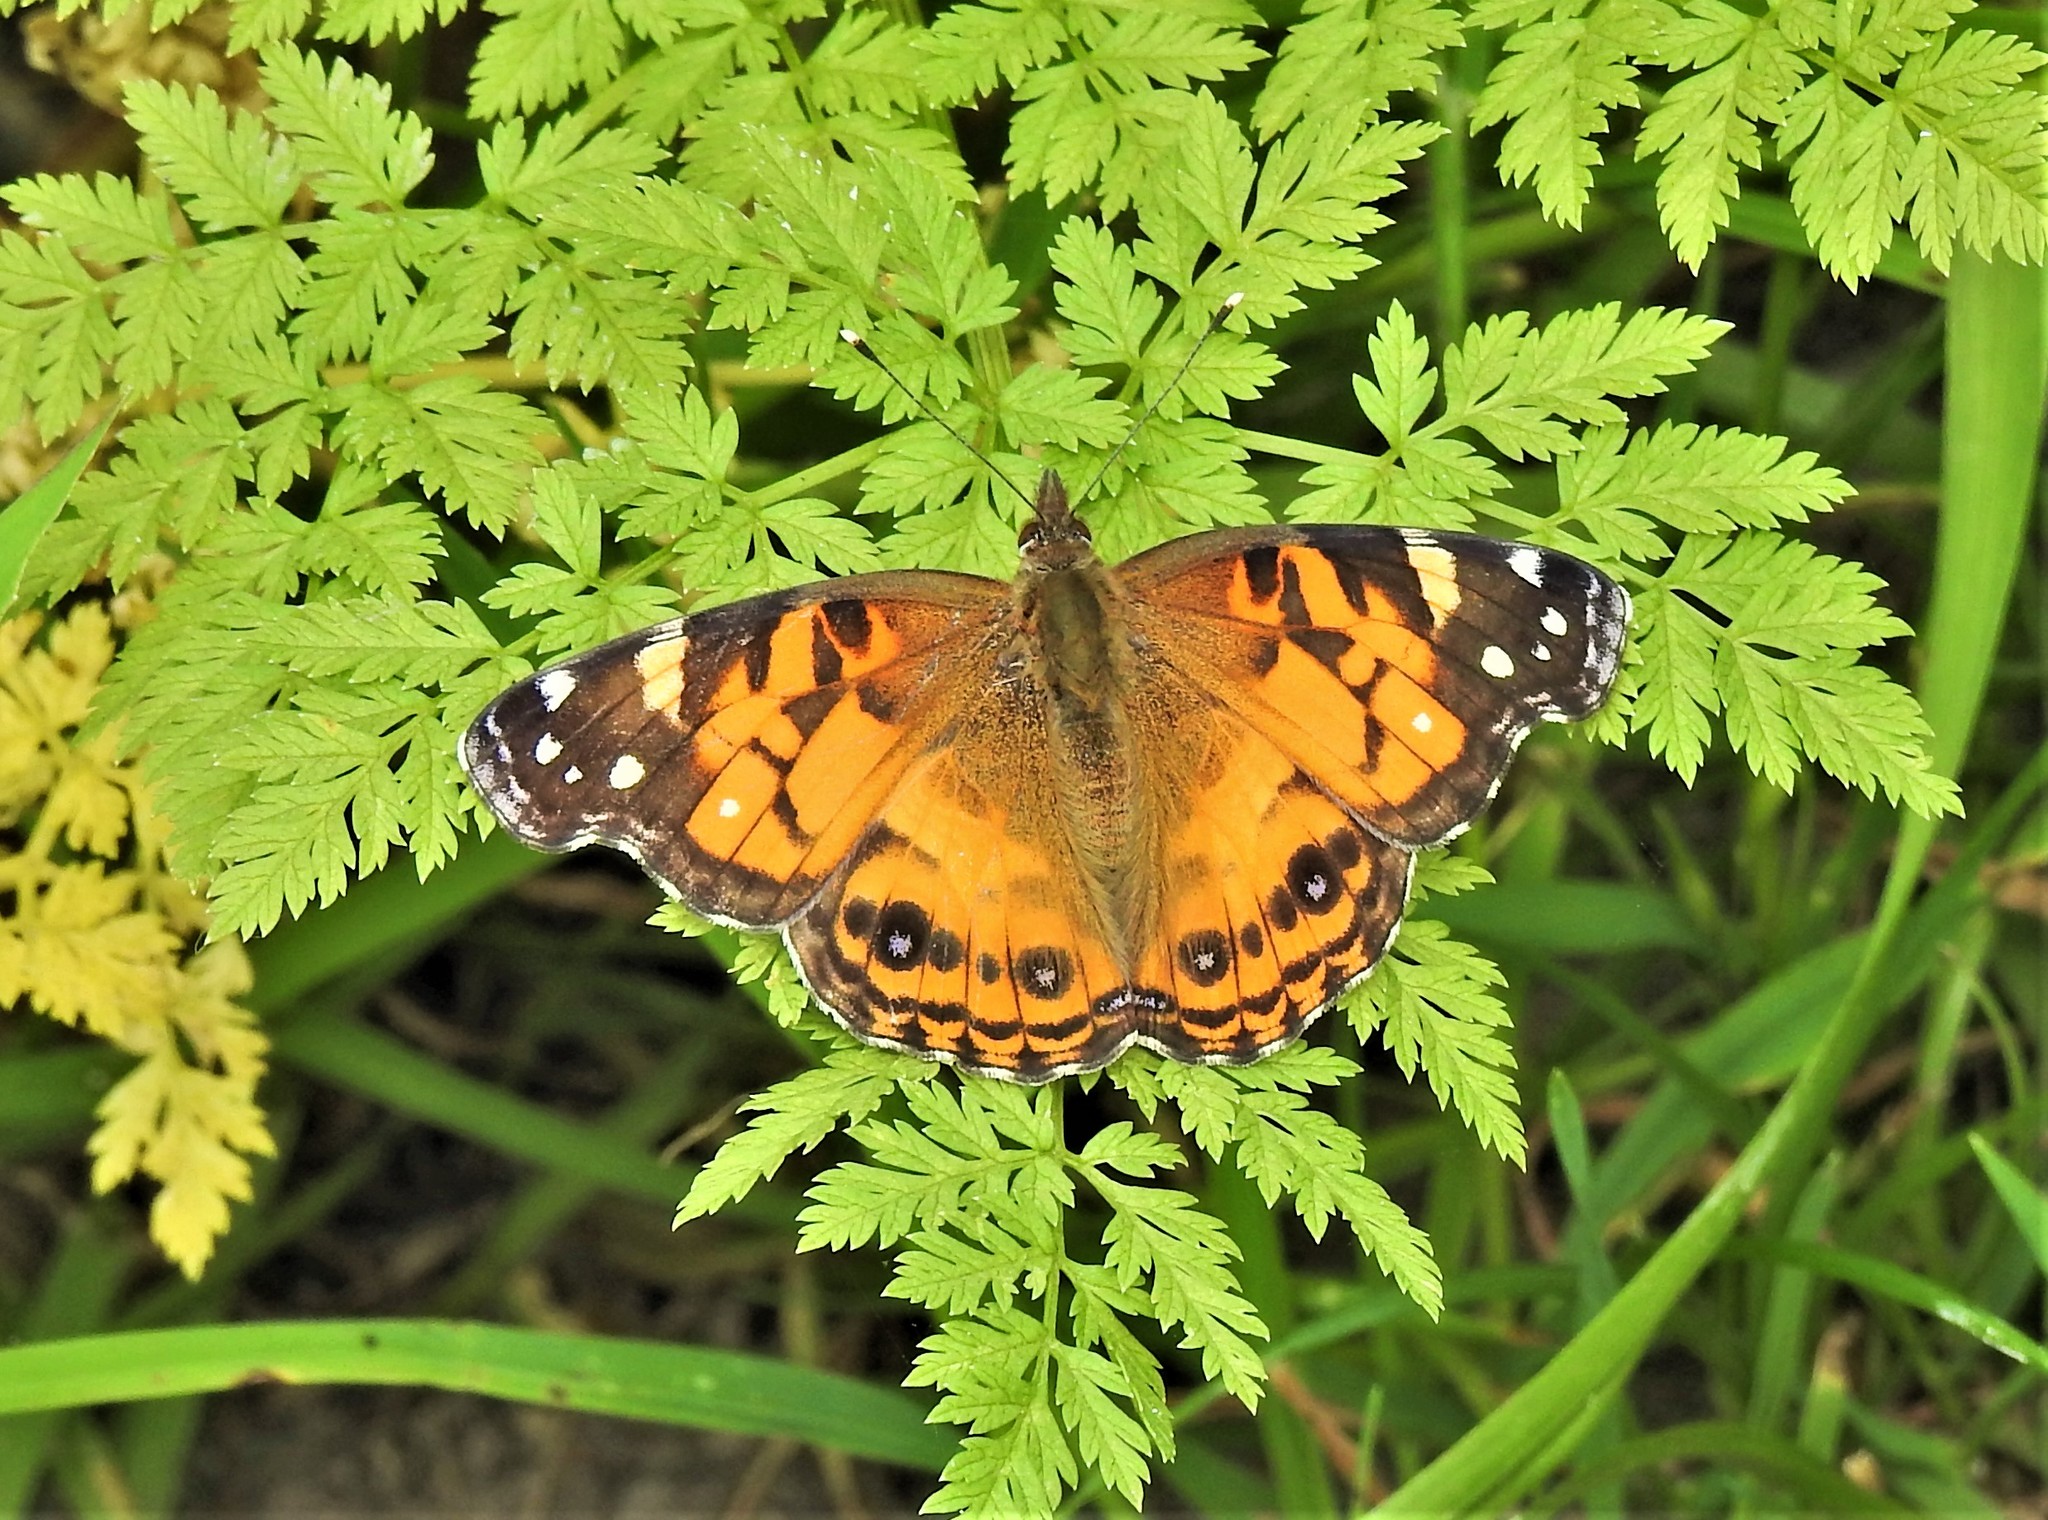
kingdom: Animalia
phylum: Arthropoda
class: Insecta
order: Lepidoptera
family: Nymphalidae
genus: Vanessa
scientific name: Vanessa virginiensis
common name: American lady
